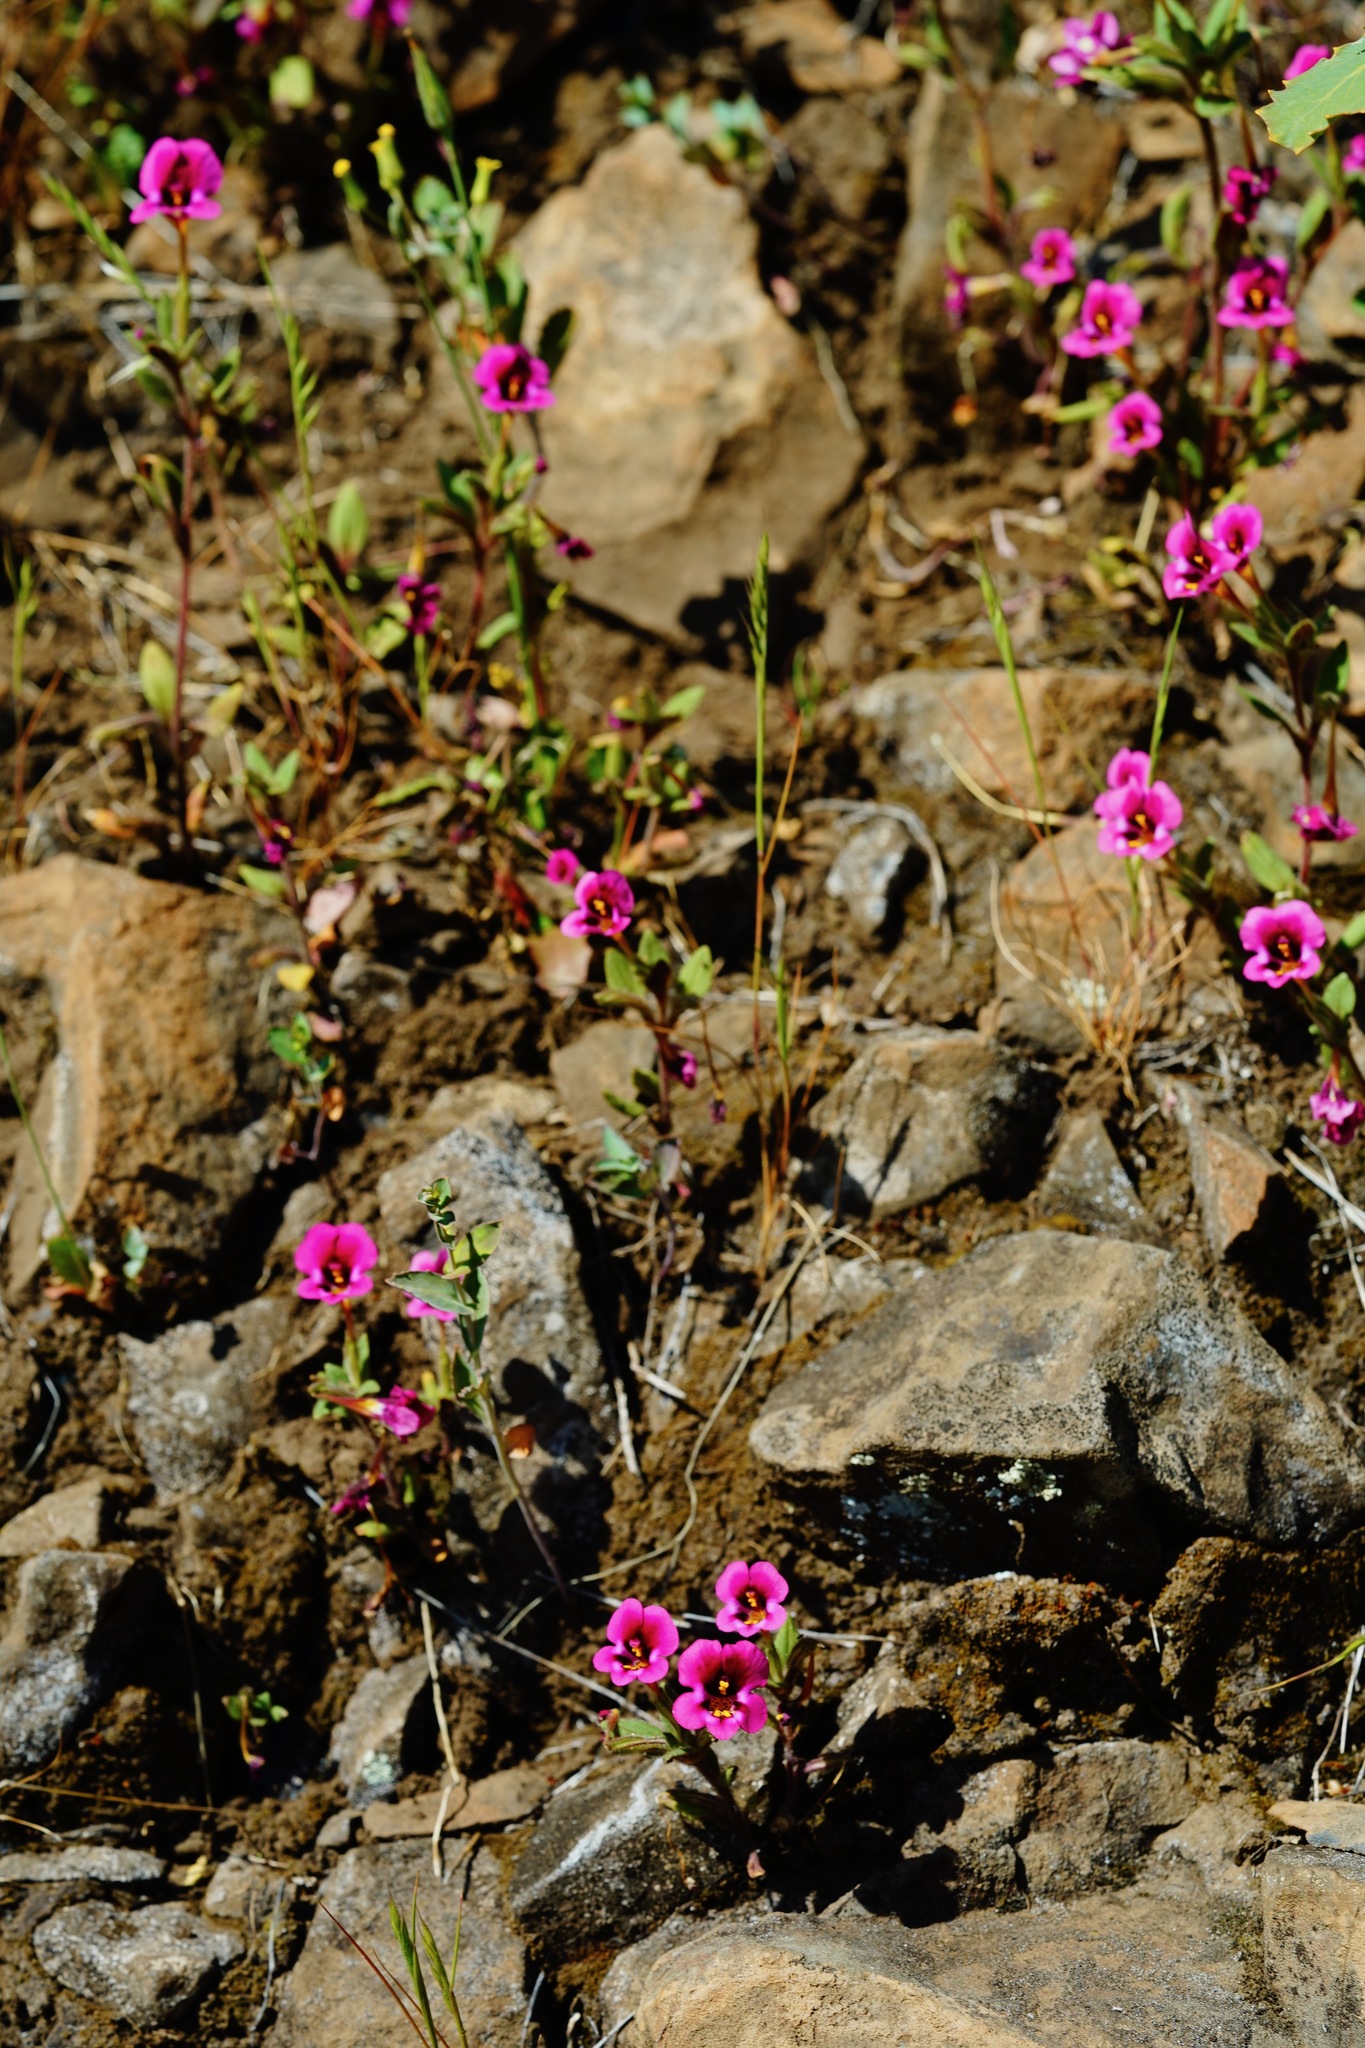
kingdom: Plantae
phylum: Tracheophyta
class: Magnoliopsida
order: Lamiales
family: Phrymaceae
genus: Diplacus
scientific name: Diplacus kelloggii
